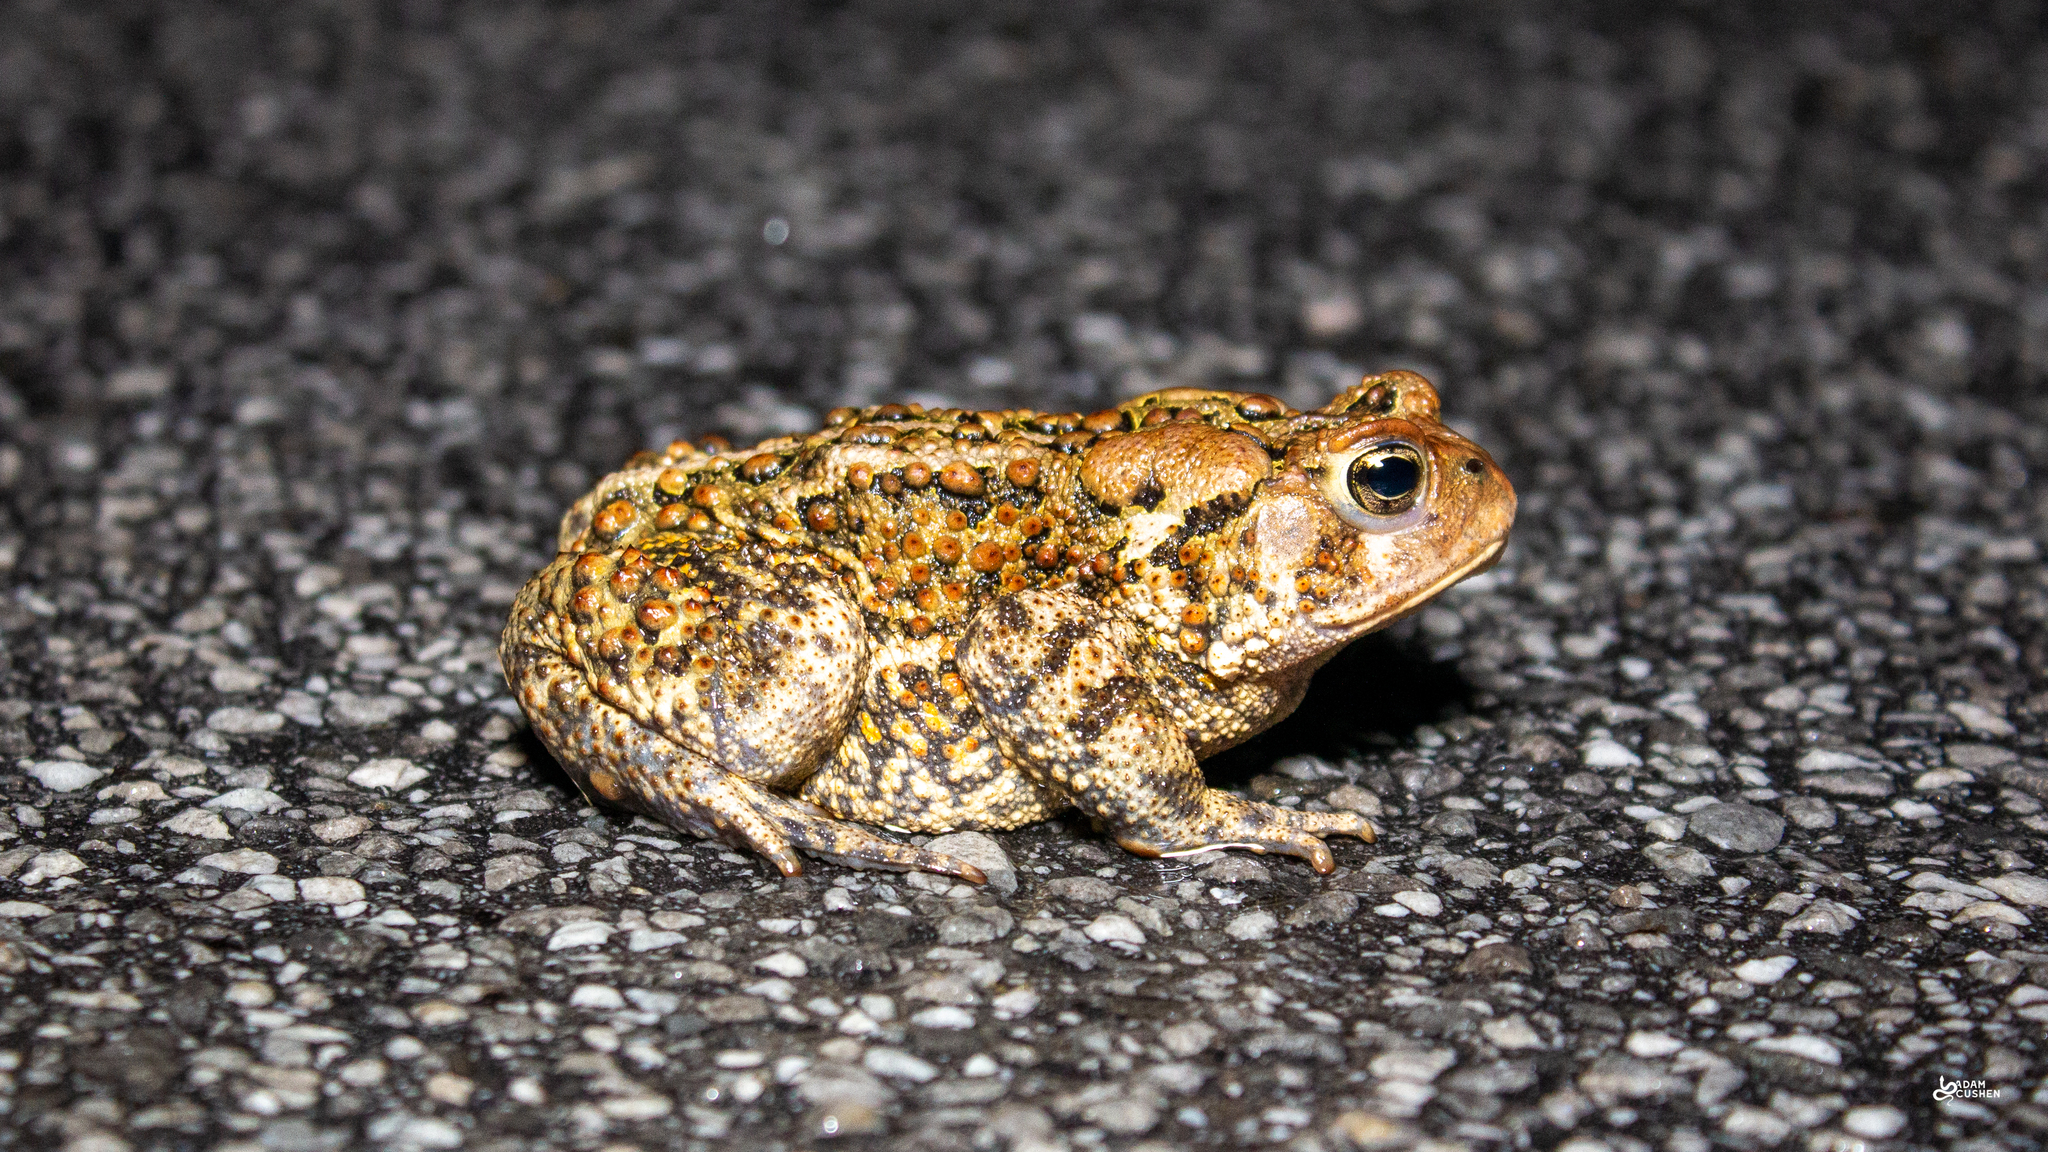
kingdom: Animalia
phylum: Chordata
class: Amphibia
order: Anura
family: Bufonidae
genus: Anaxyrus
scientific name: Anaxyrus americanus
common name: American toad
